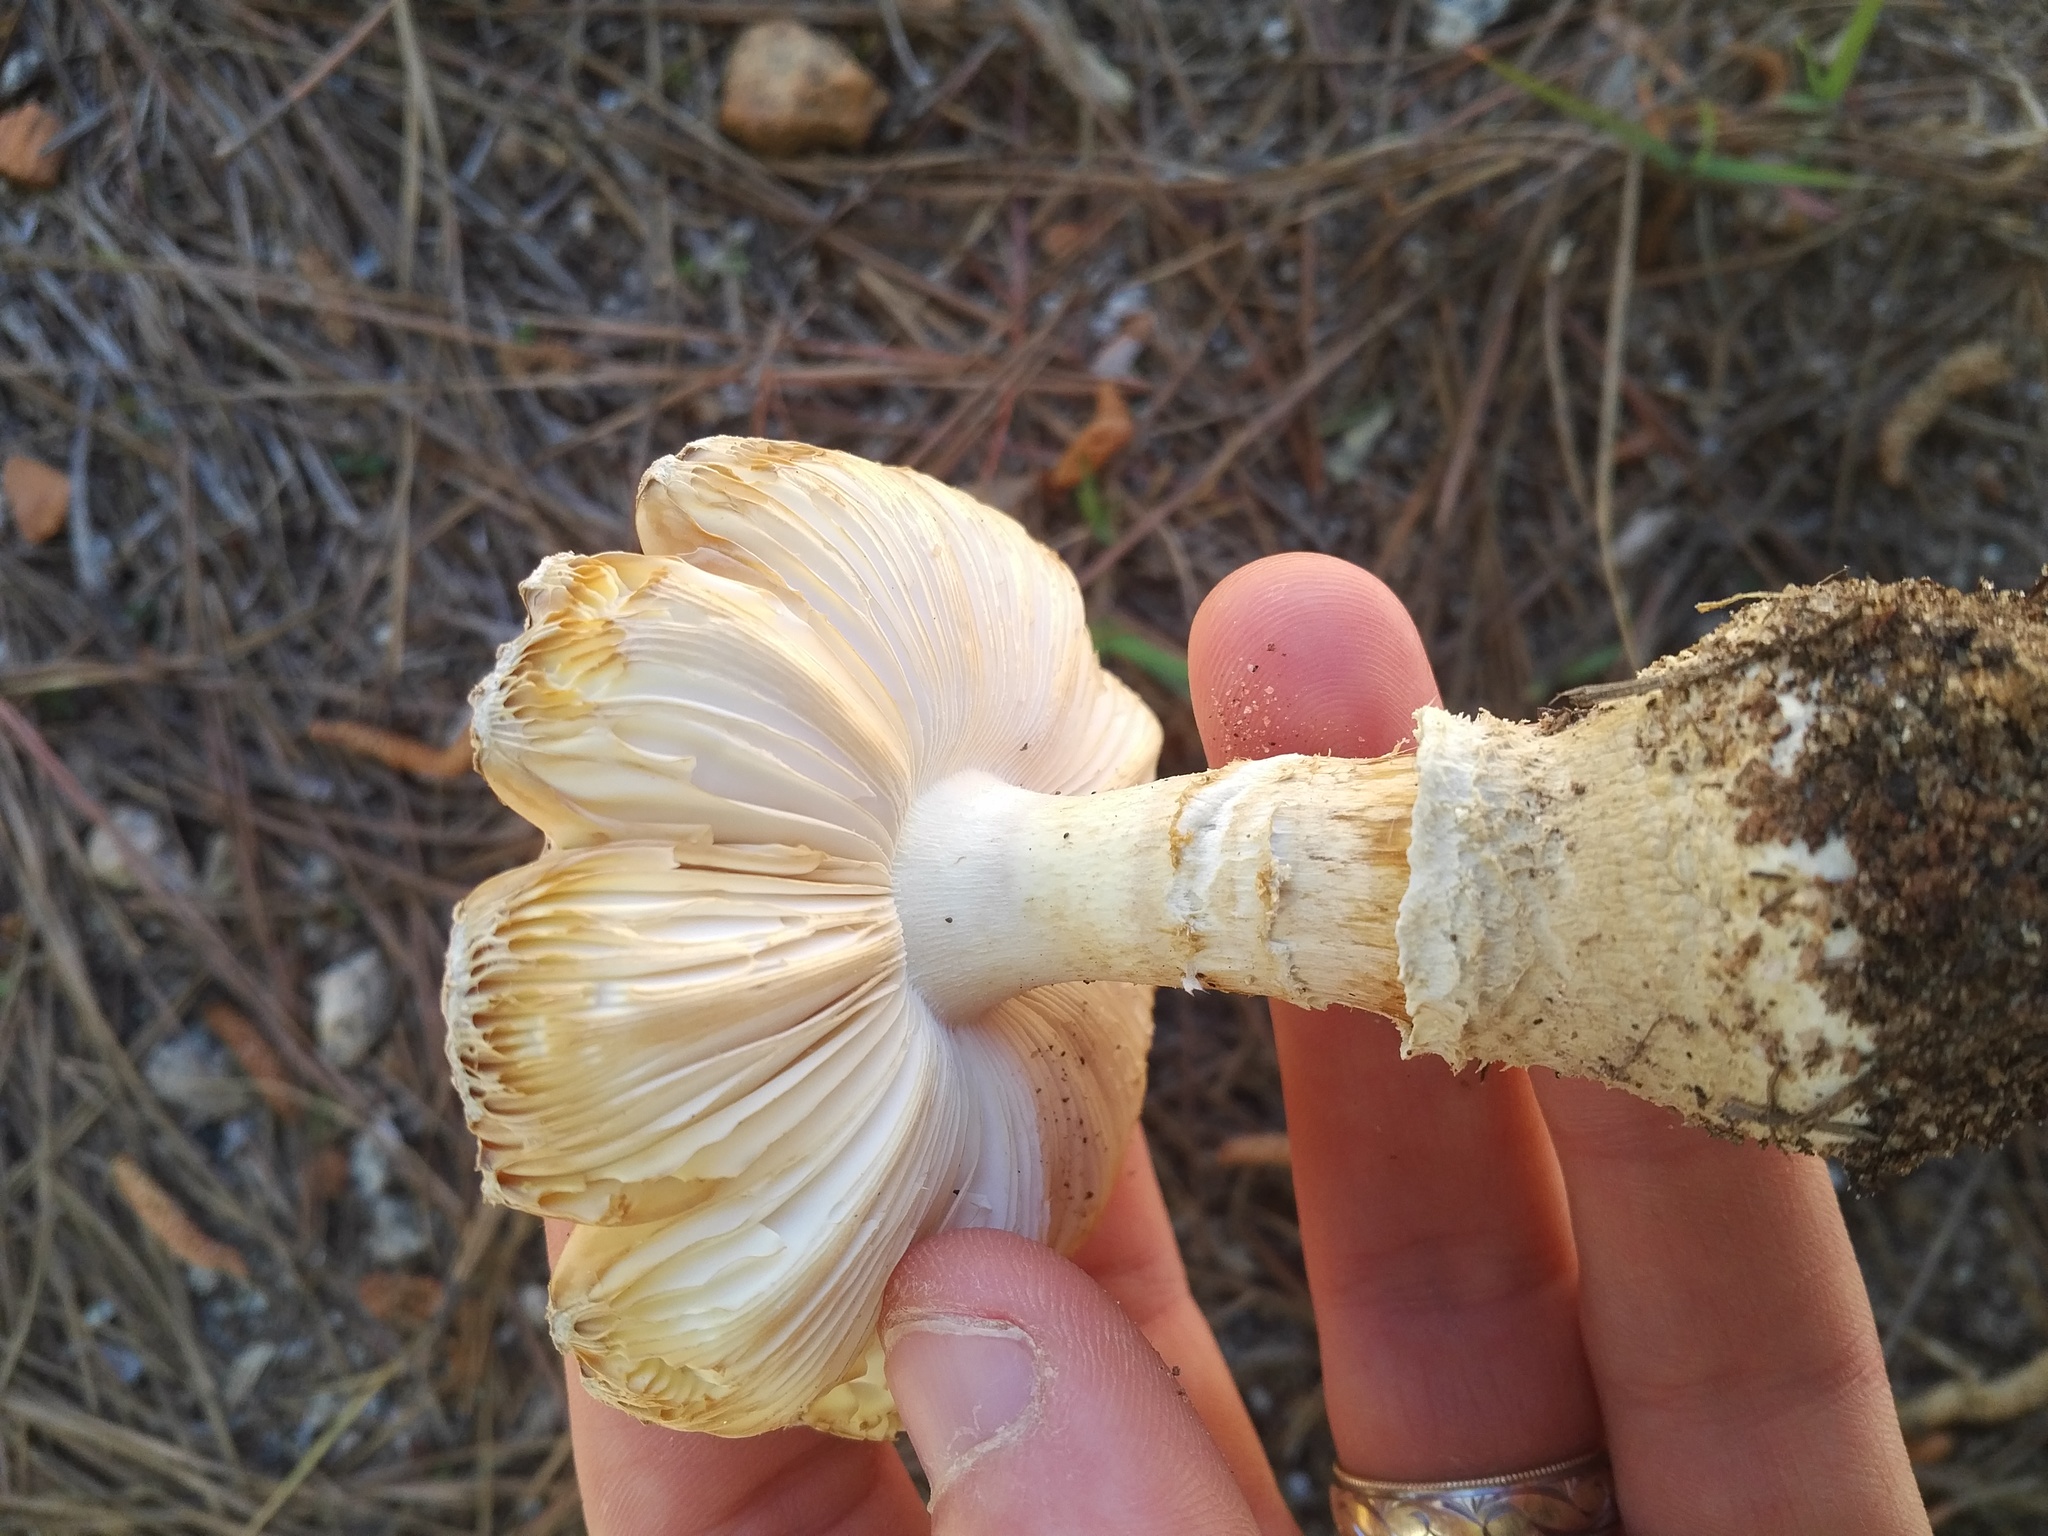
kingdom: Fungi
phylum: Basidiomycota
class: Agaricomycetes
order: Agaricales
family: Amanitaceae
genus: Amanita
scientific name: Amanita persicina
